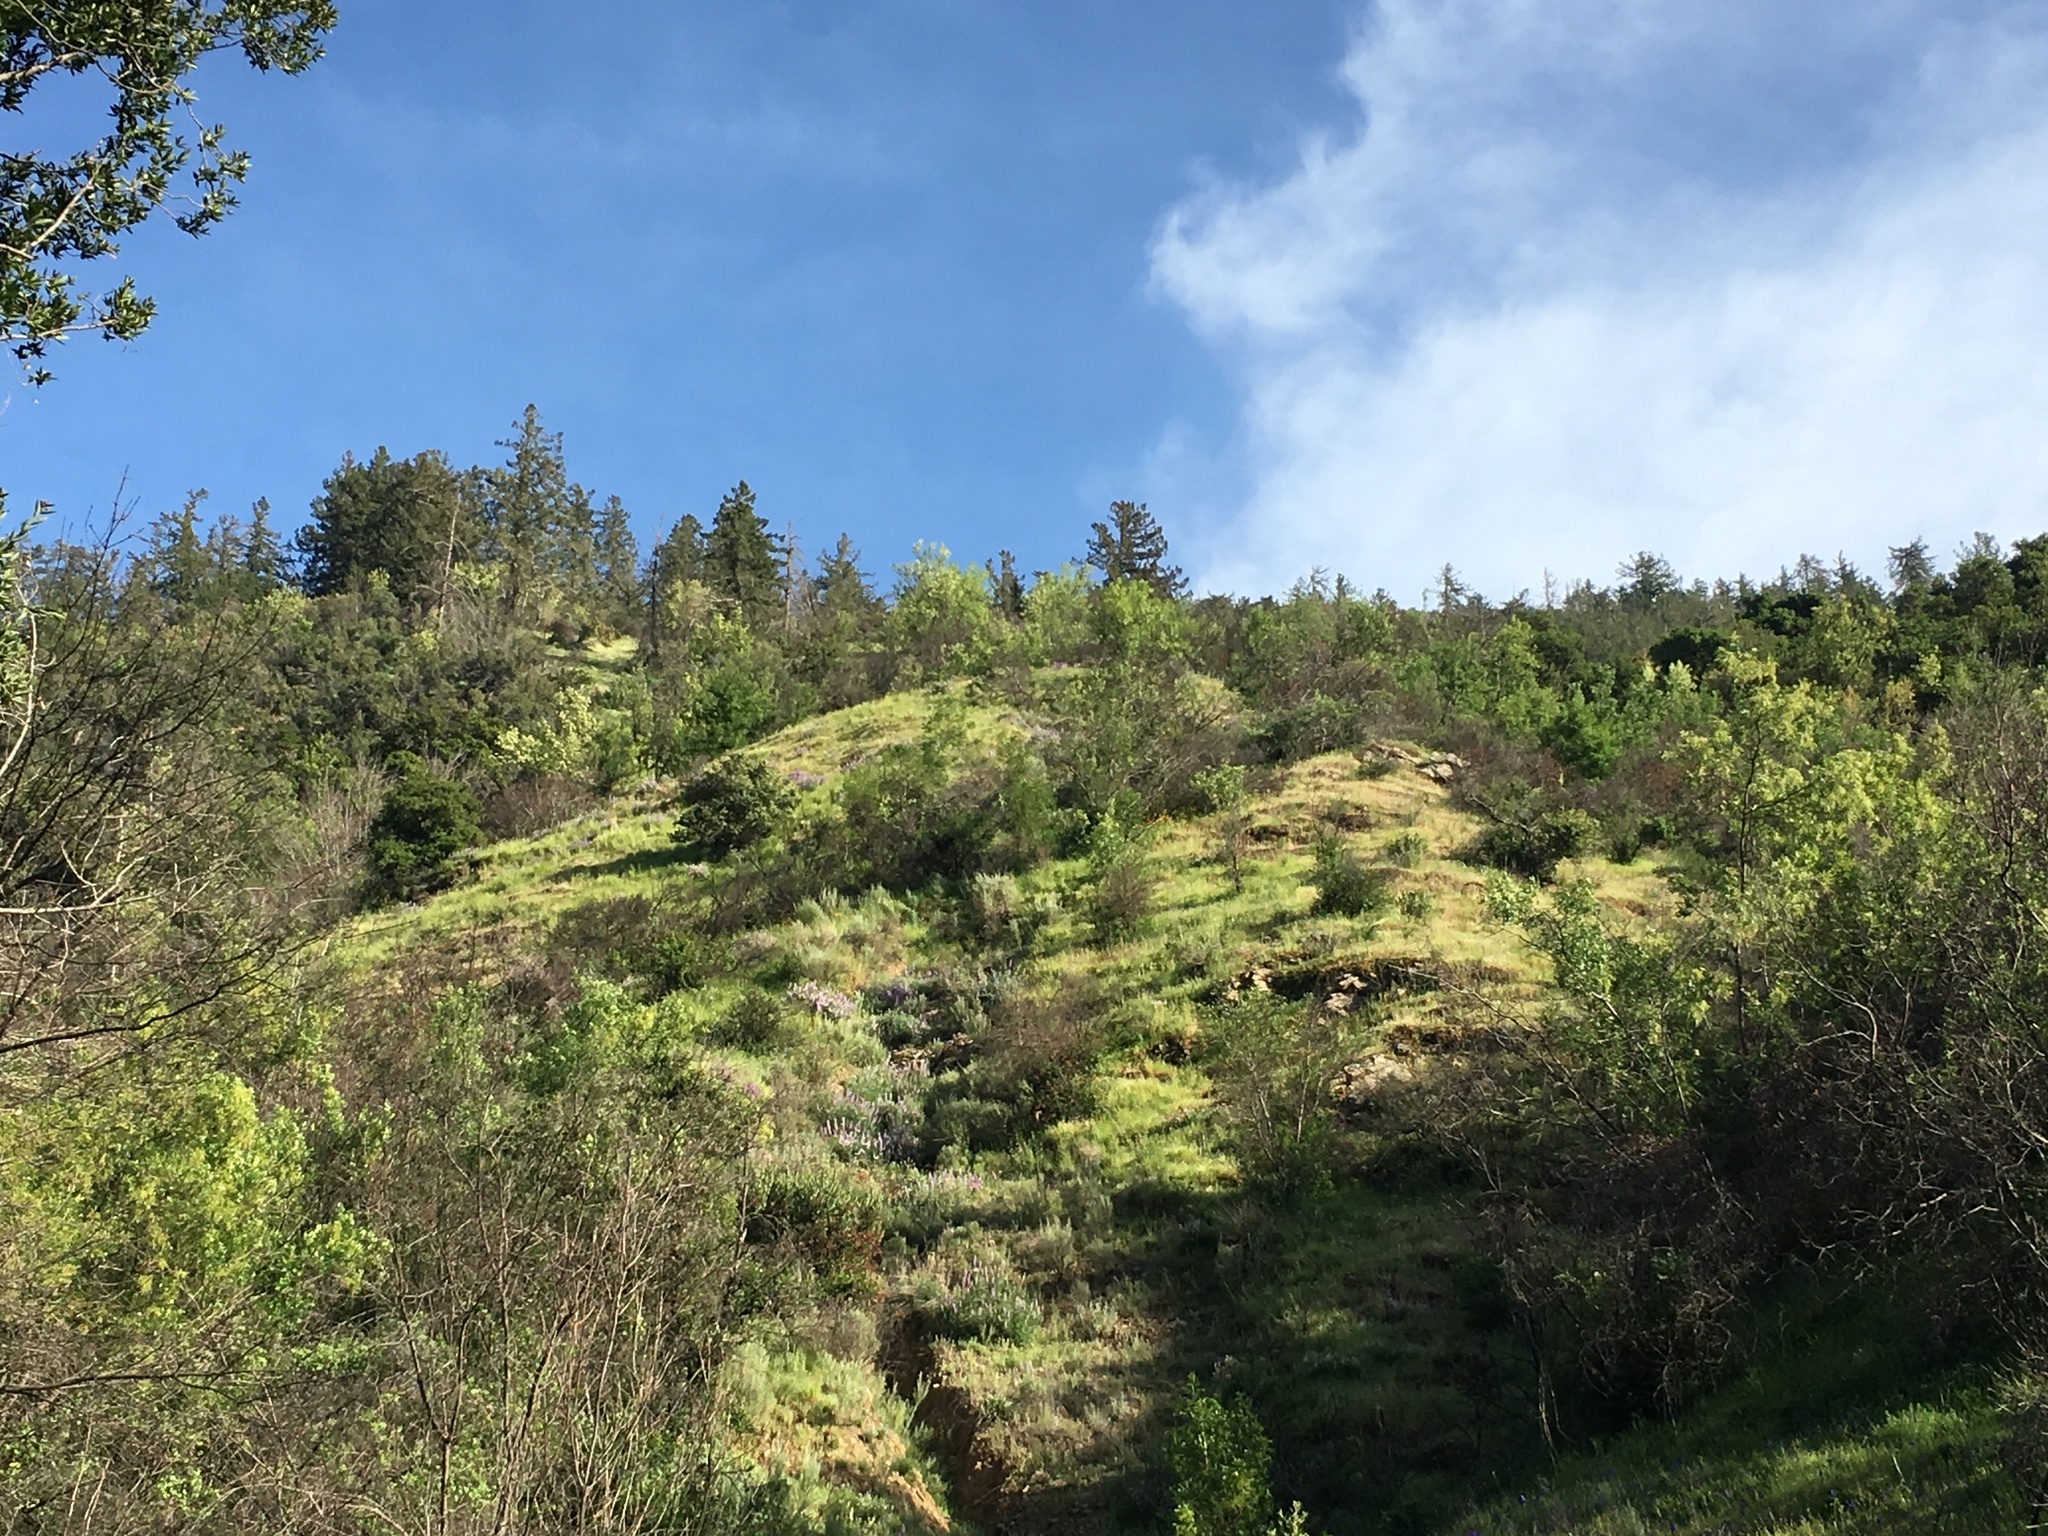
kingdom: Plantae
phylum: Tracheophyta
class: Pinopsida
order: Pinales
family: Pinaceae
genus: Pseudotsuga
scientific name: Pseudotsuga macrocarpa
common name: Big-cone douglas-fir
